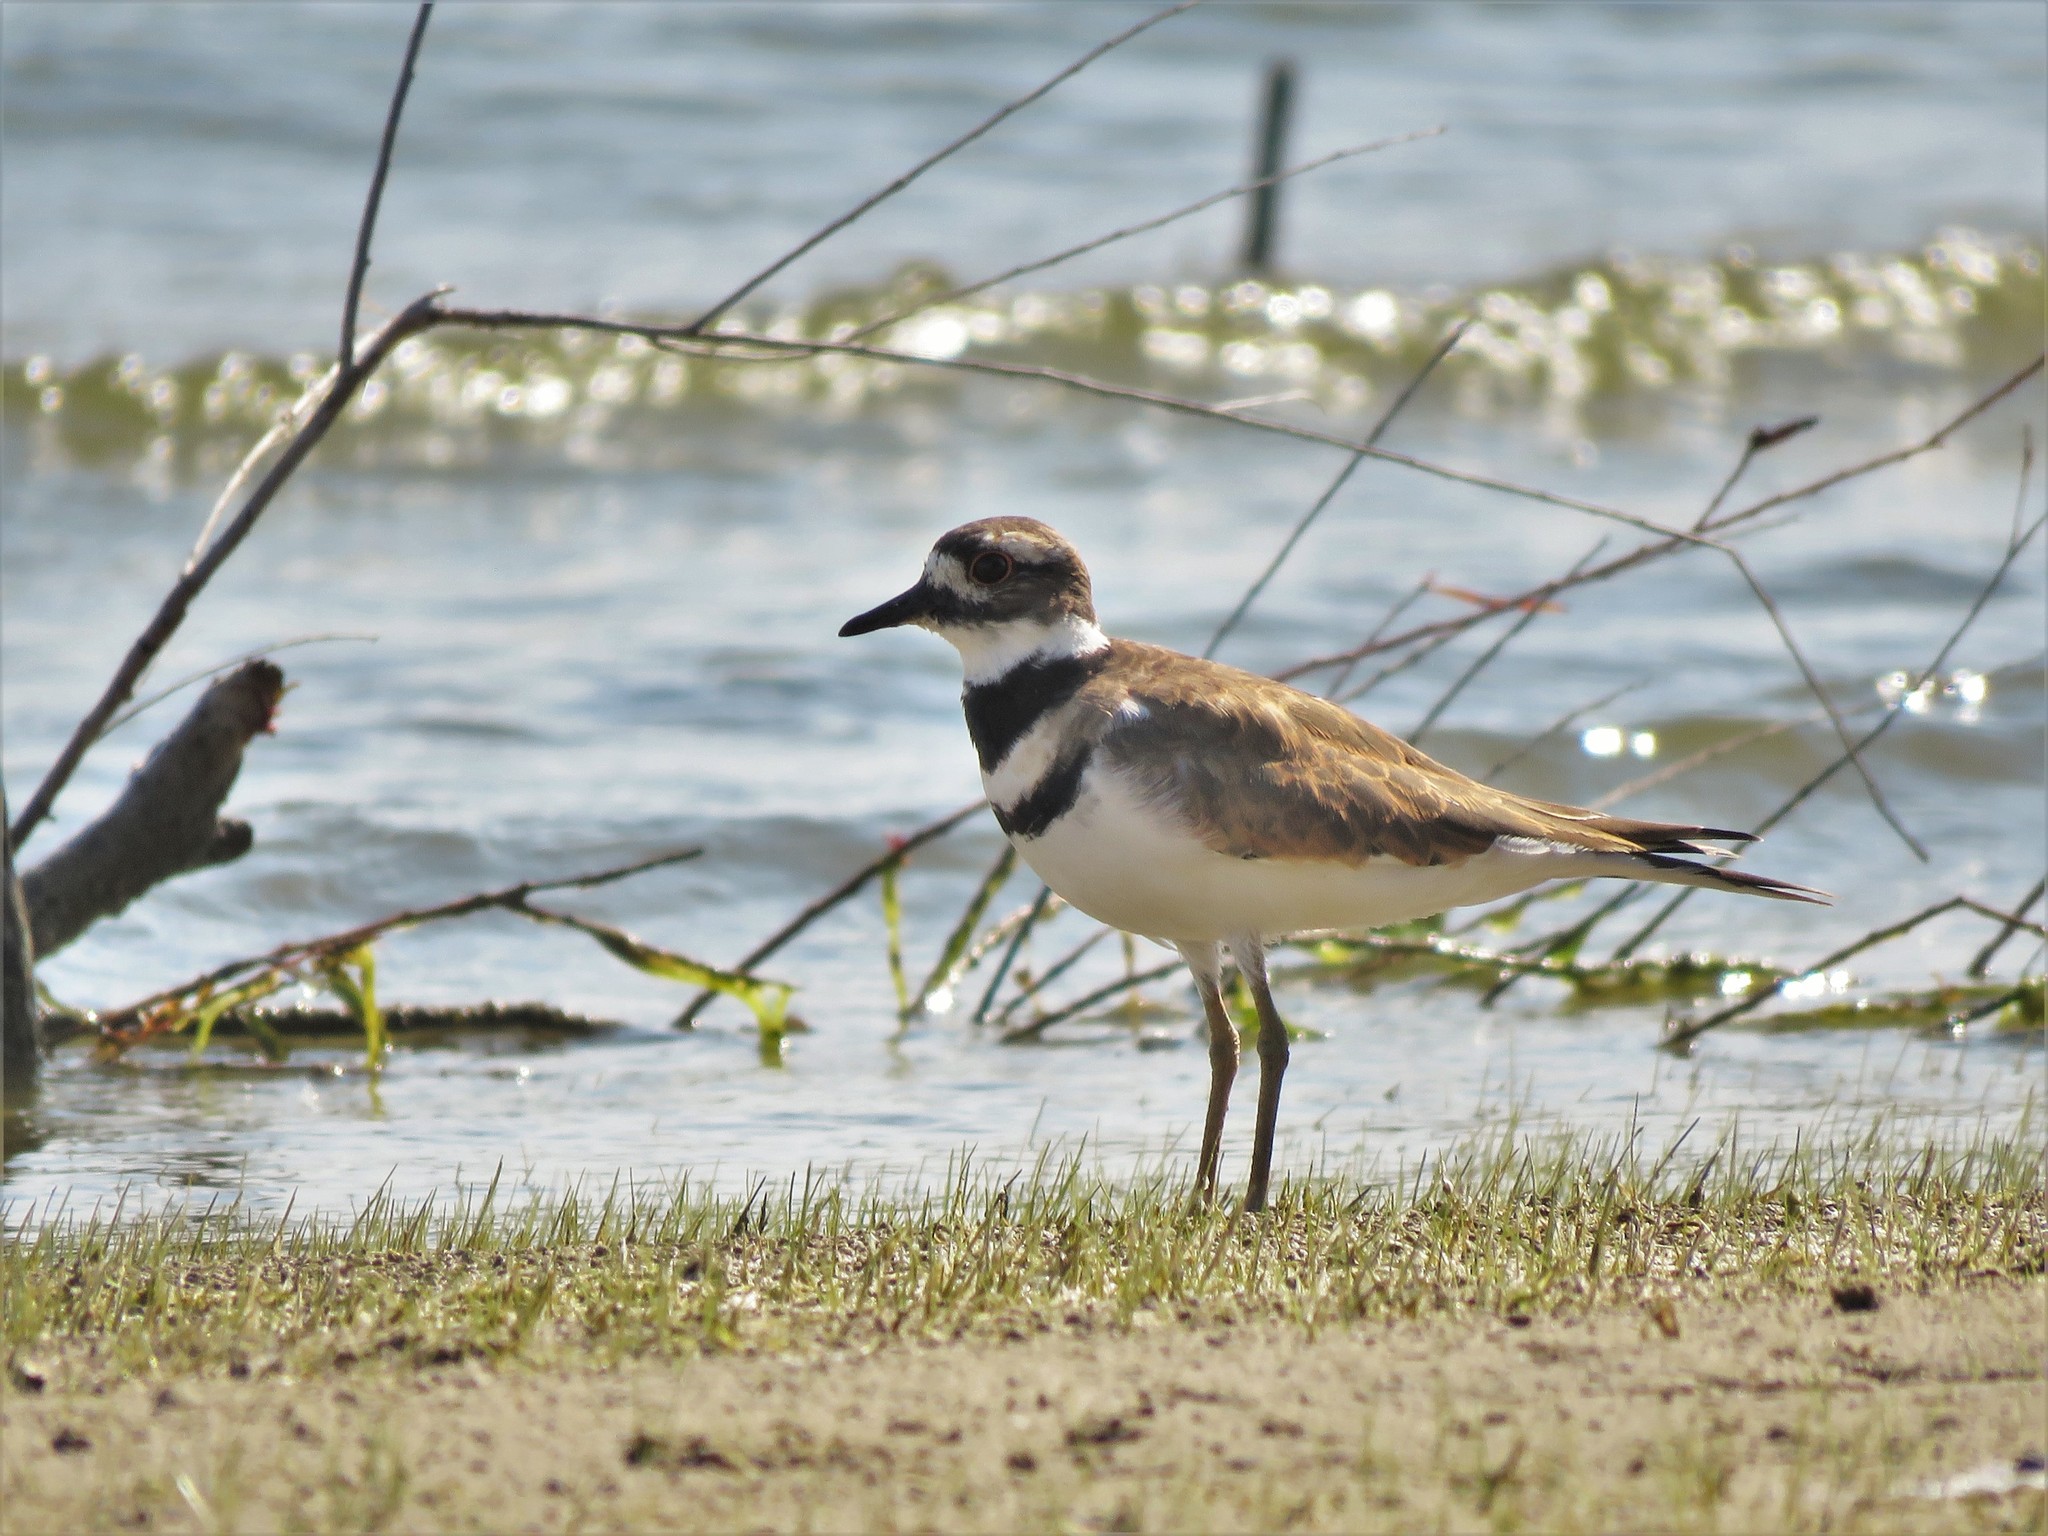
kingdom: Animalia
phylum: Chordata
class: Aves
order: Charadriiformes
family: Charadriidae
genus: Charadrius
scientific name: Charadrius vociferus
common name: Killdeer
